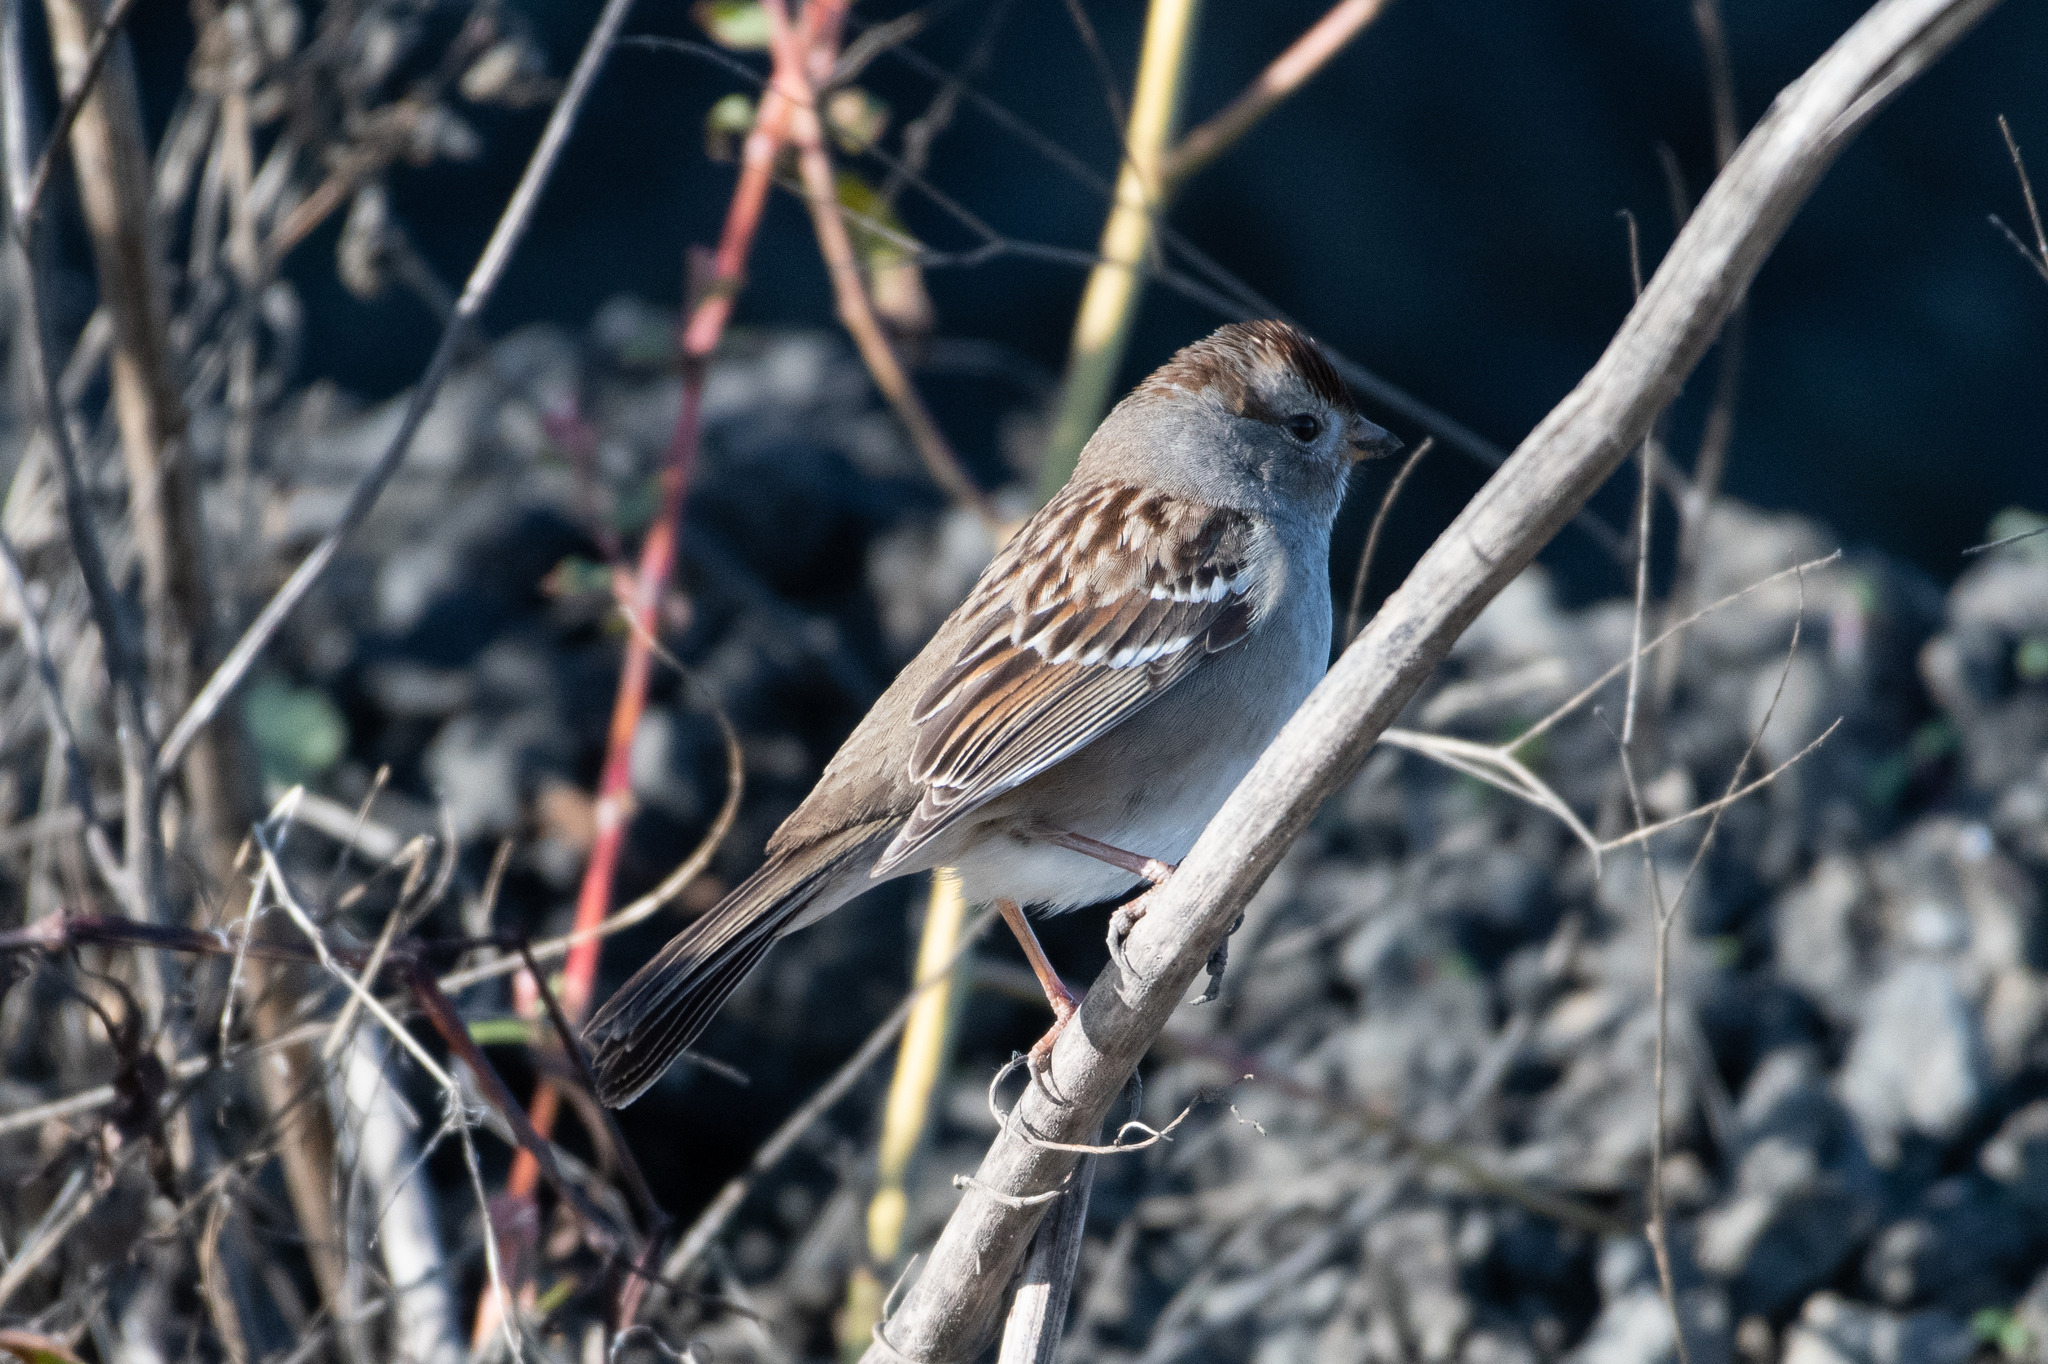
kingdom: Animalia
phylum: Chordata
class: Aves
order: Passeriformes
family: Passerellidae
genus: Zonotrichia
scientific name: Zonotrichia leucophrys
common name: White-crowned sparrow
